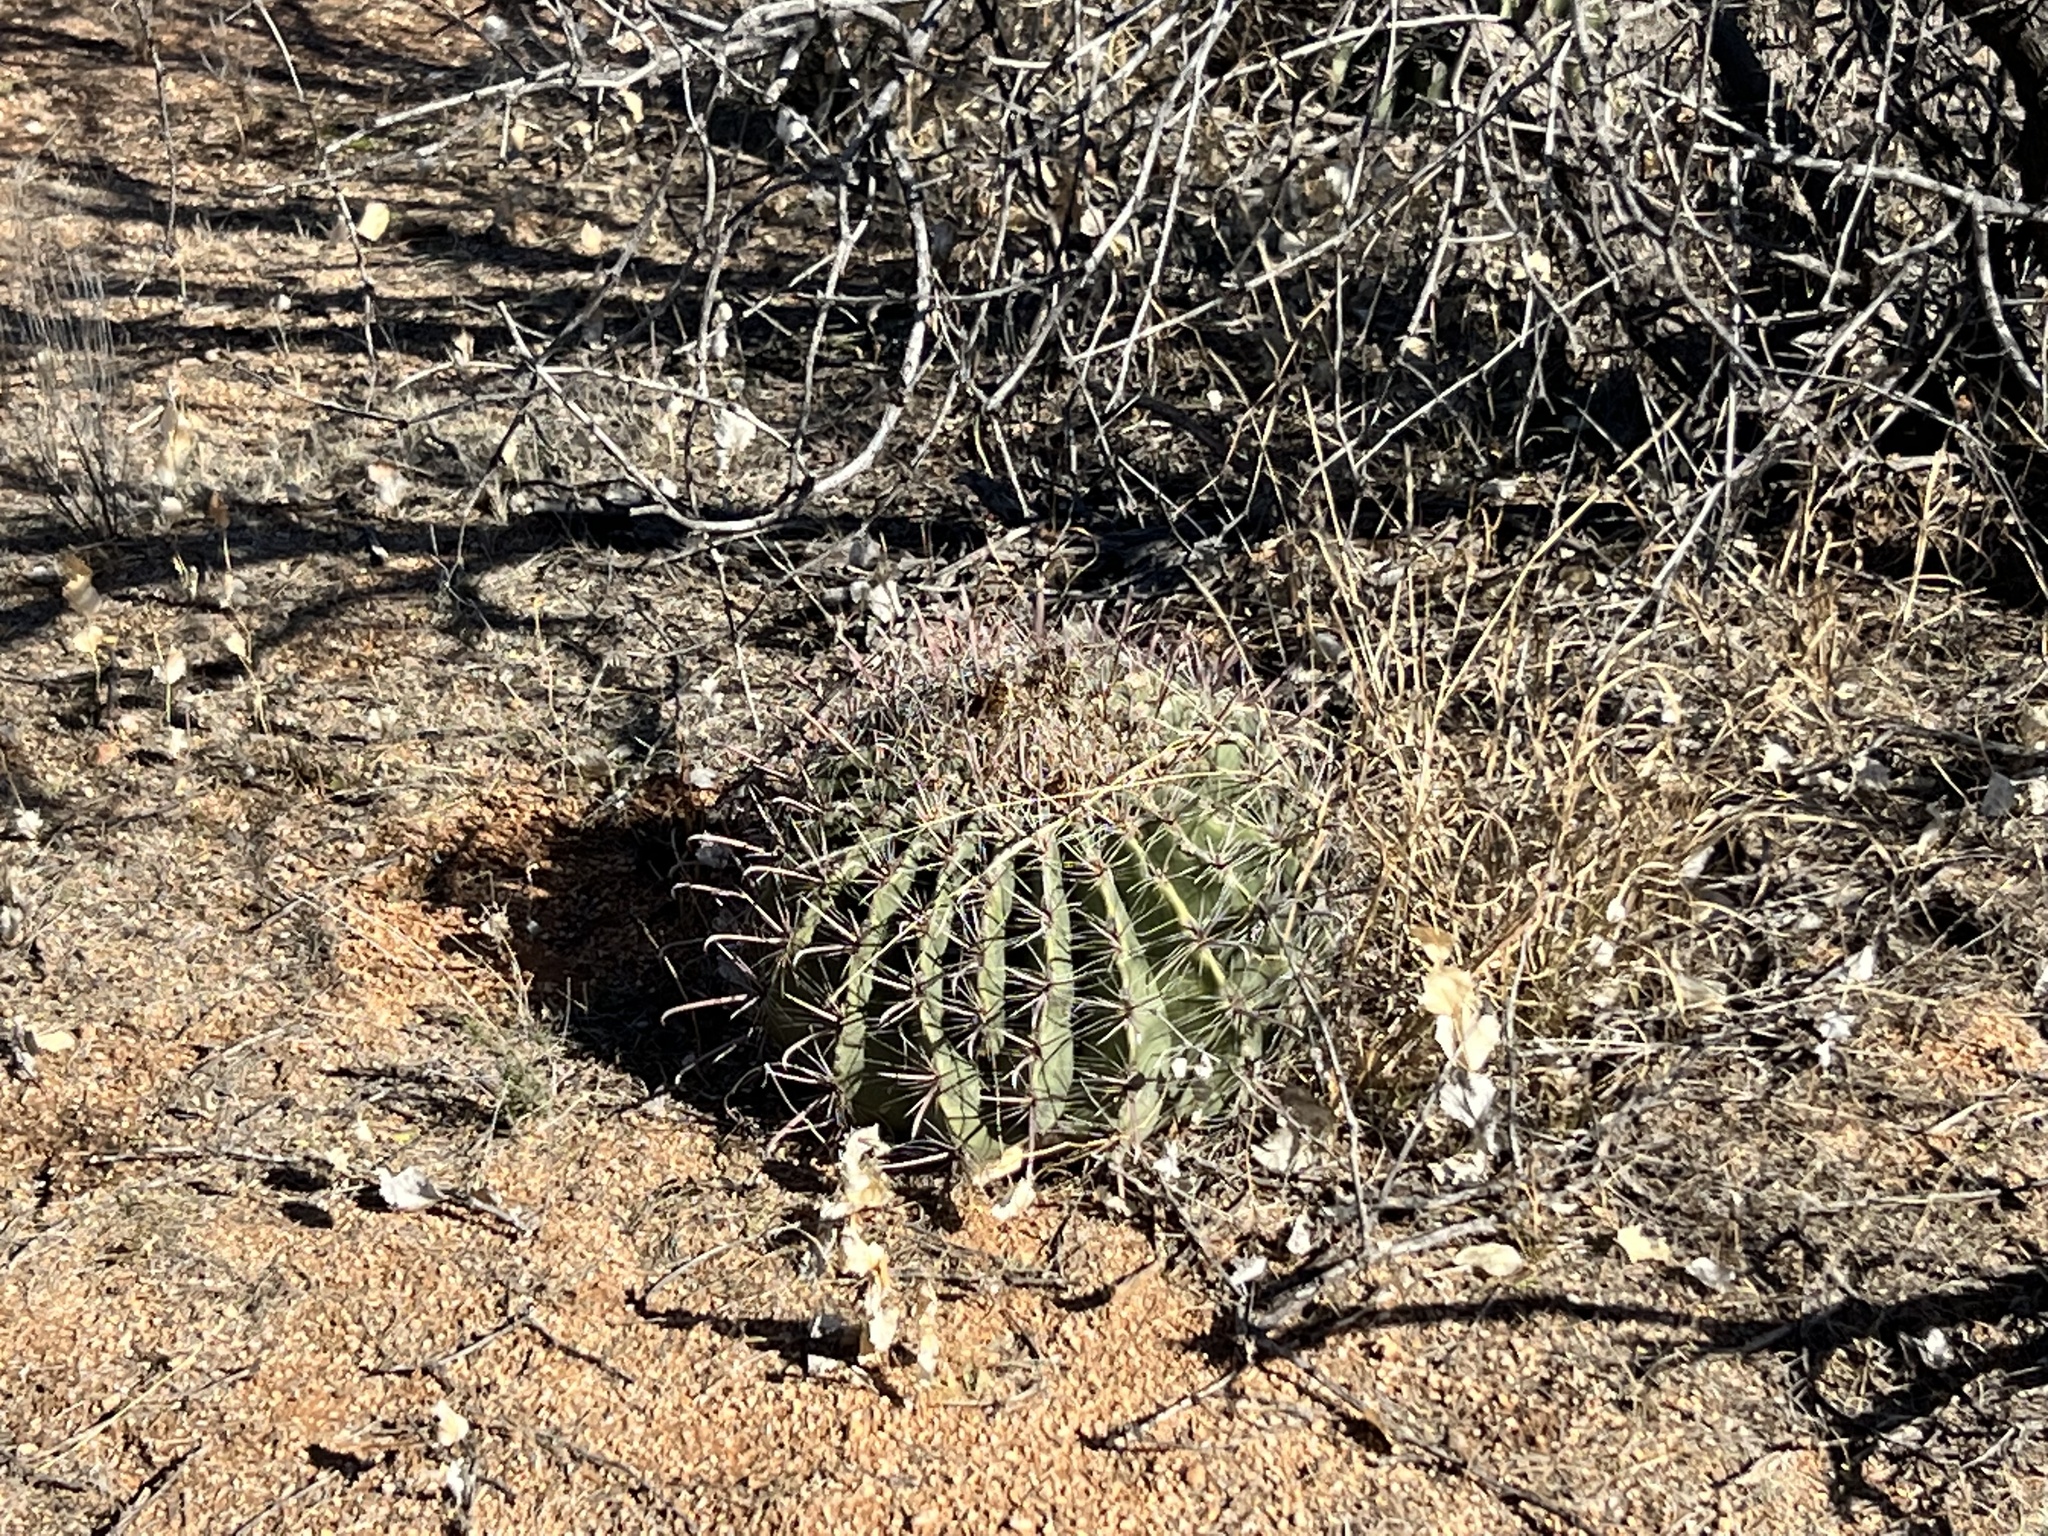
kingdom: Plantae
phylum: Tracheophyta
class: Magnoliopsida
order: Caryophyllales
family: Cactaceae
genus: Ferocactus
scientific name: Ferocactus wislizeni
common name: Candy barrel cactus
